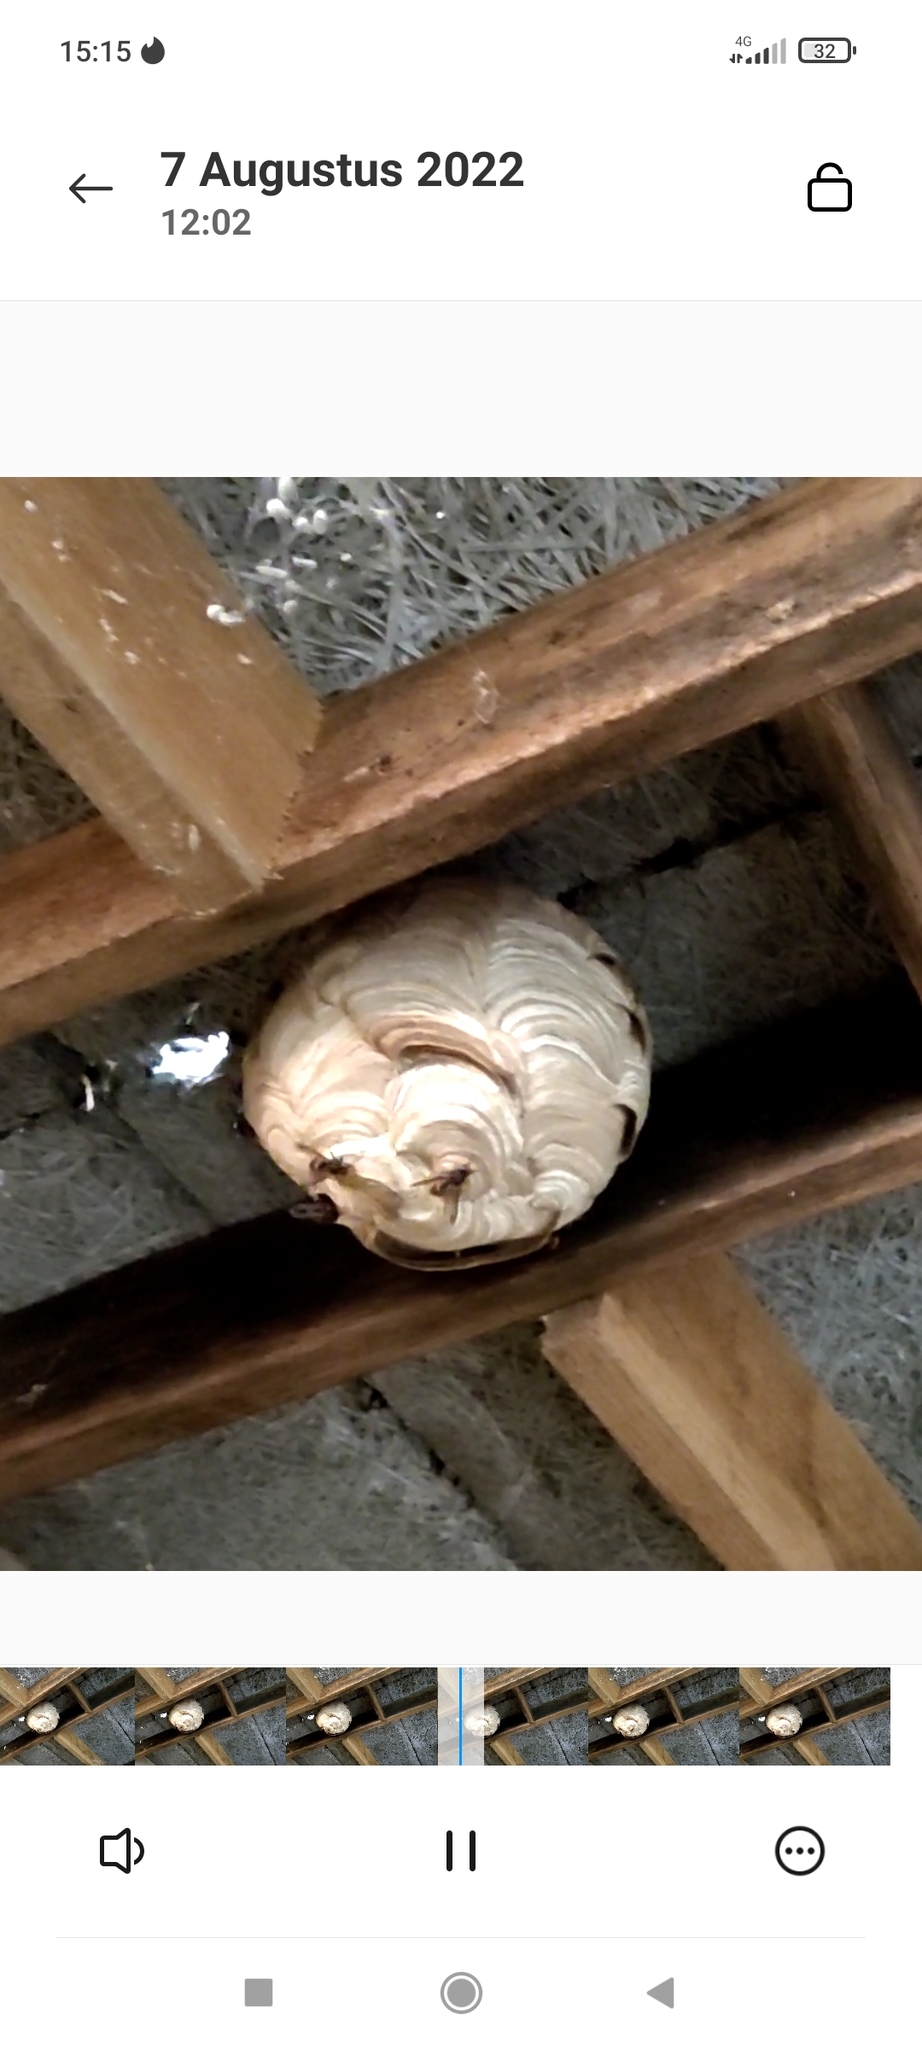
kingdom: Animalia
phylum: Arthropoda
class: Insecta
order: Hymenoptera
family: Vespidae
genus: Vespa
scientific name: Vespa velutina
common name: Asian hornet
